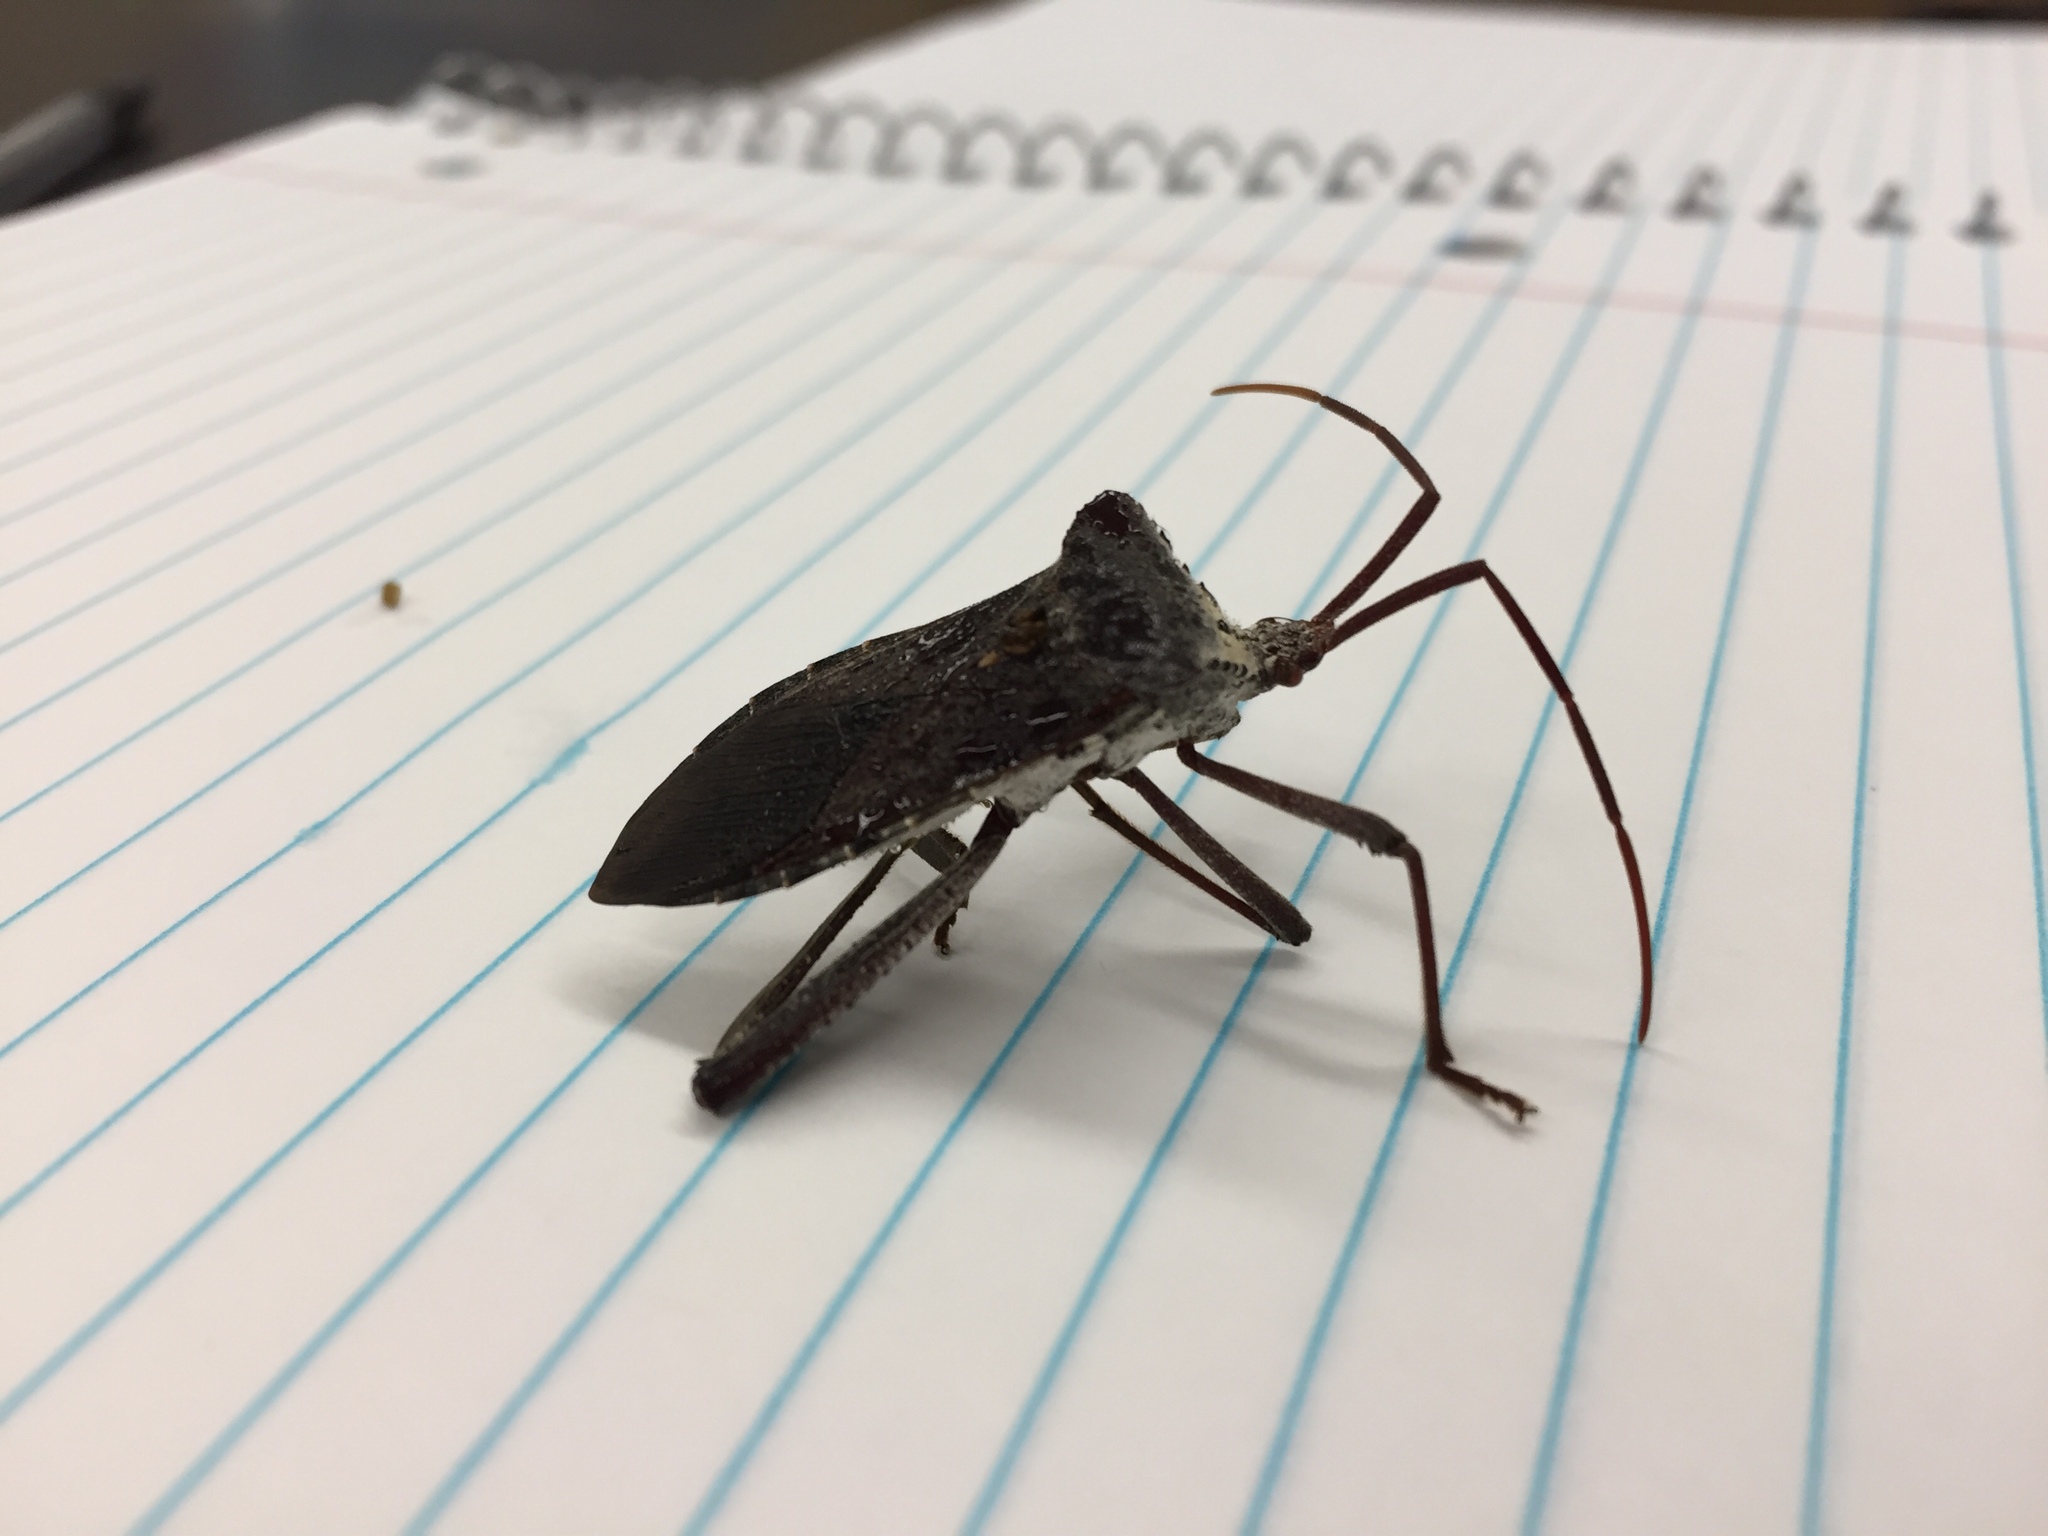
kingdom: Animalia
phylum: Arthropoda
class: Insecta
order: Hemiptera
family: Coreidae
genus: Acanthocephala
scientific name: Acanthocephala declivis
